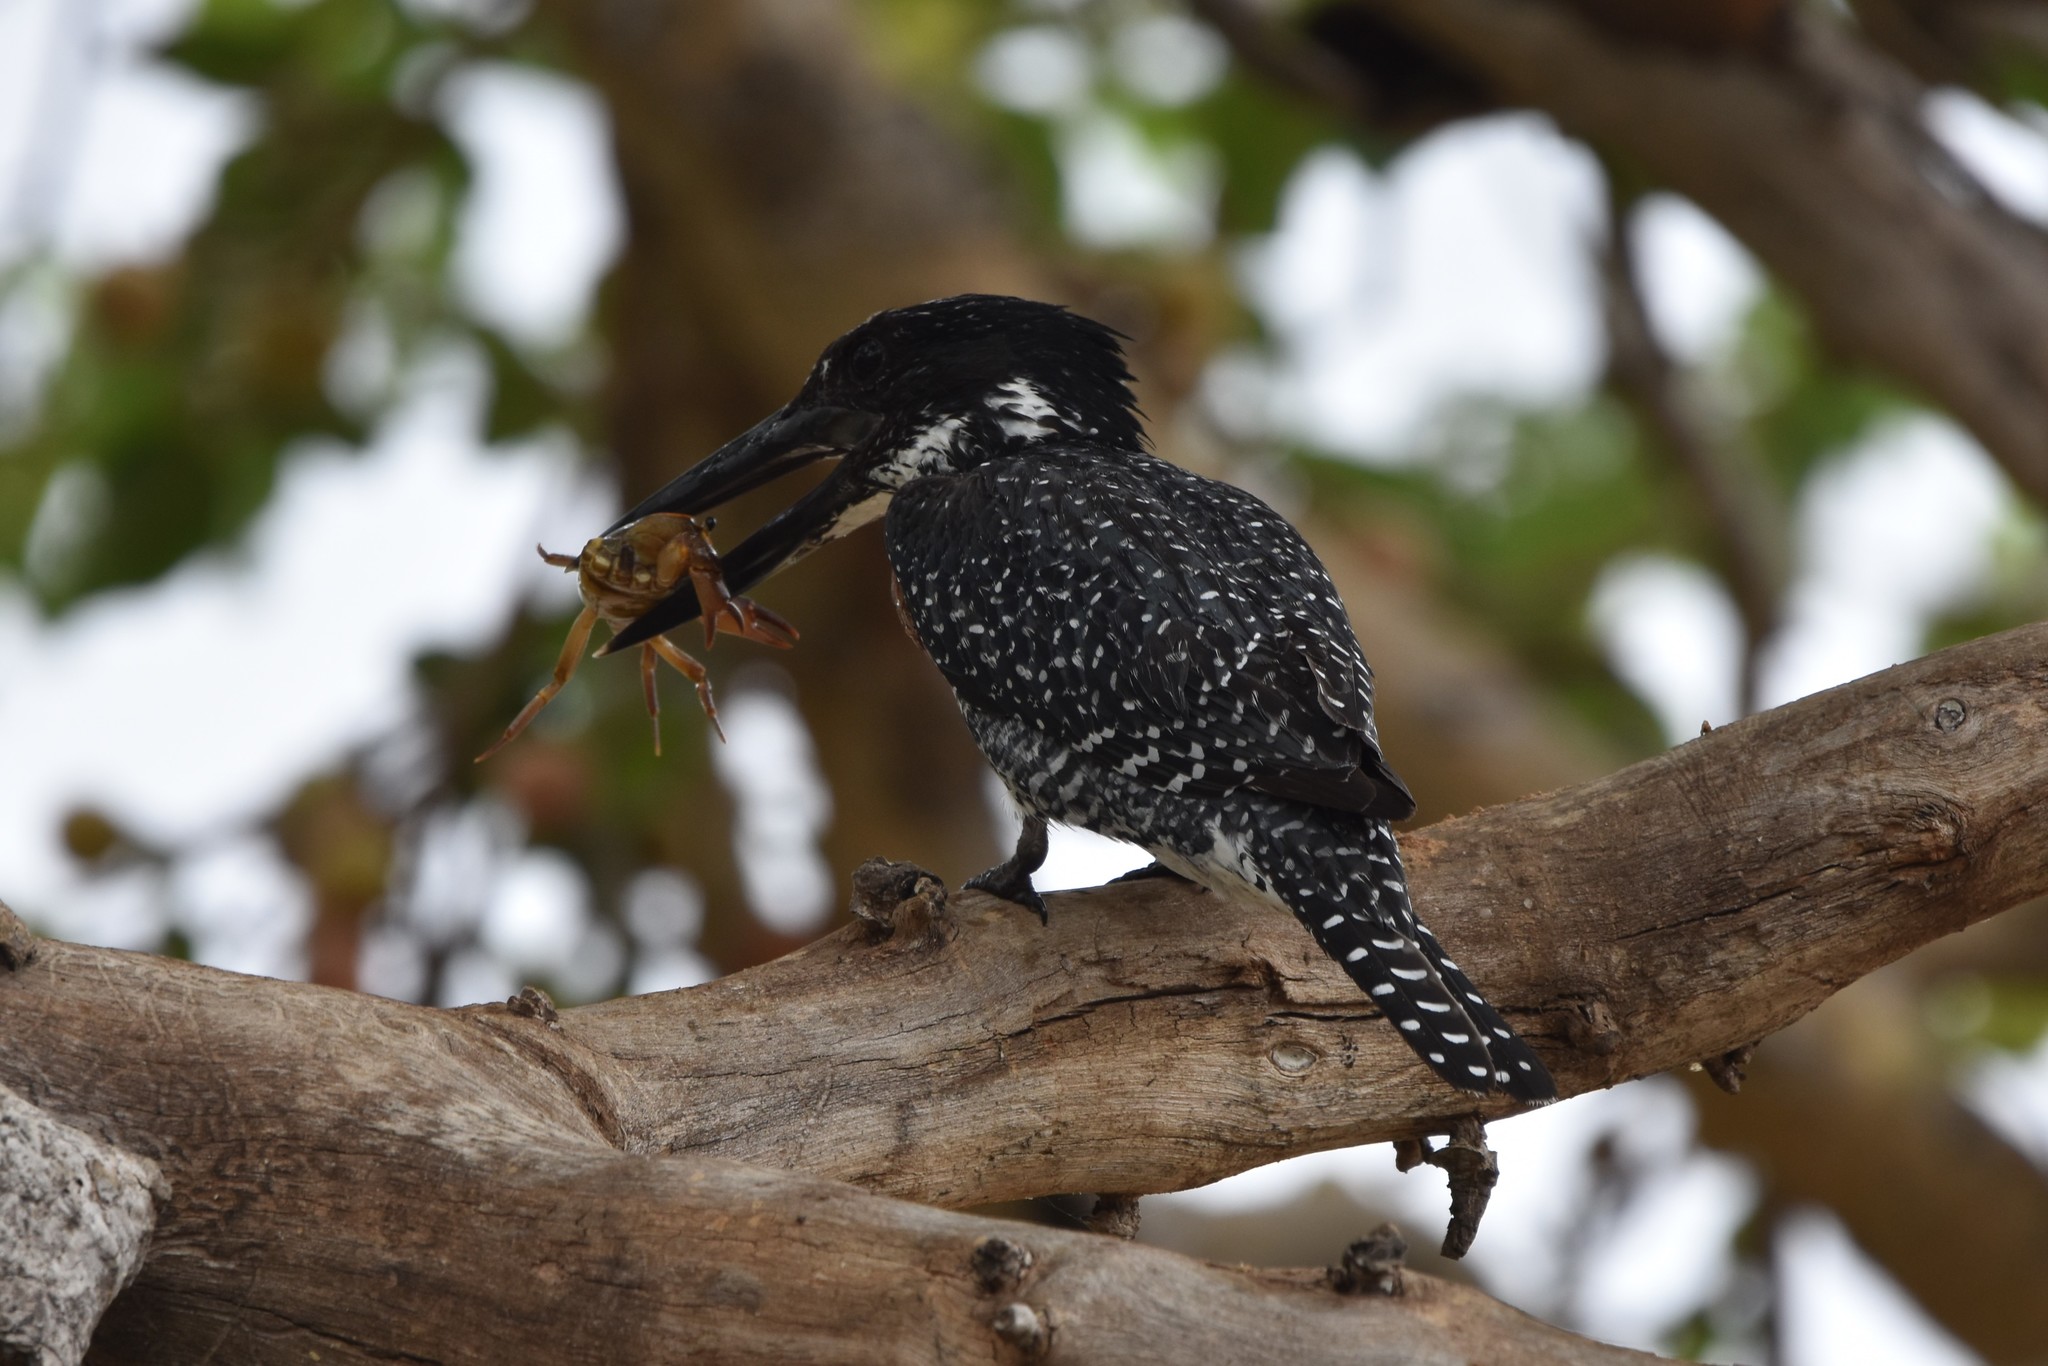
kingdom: Animalia
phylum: Chordata
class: Aves
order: Coraciiformes
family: Alcedinidae
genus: Megaceryle
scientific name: Megaceryle maxima
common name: Giant kingfisher
